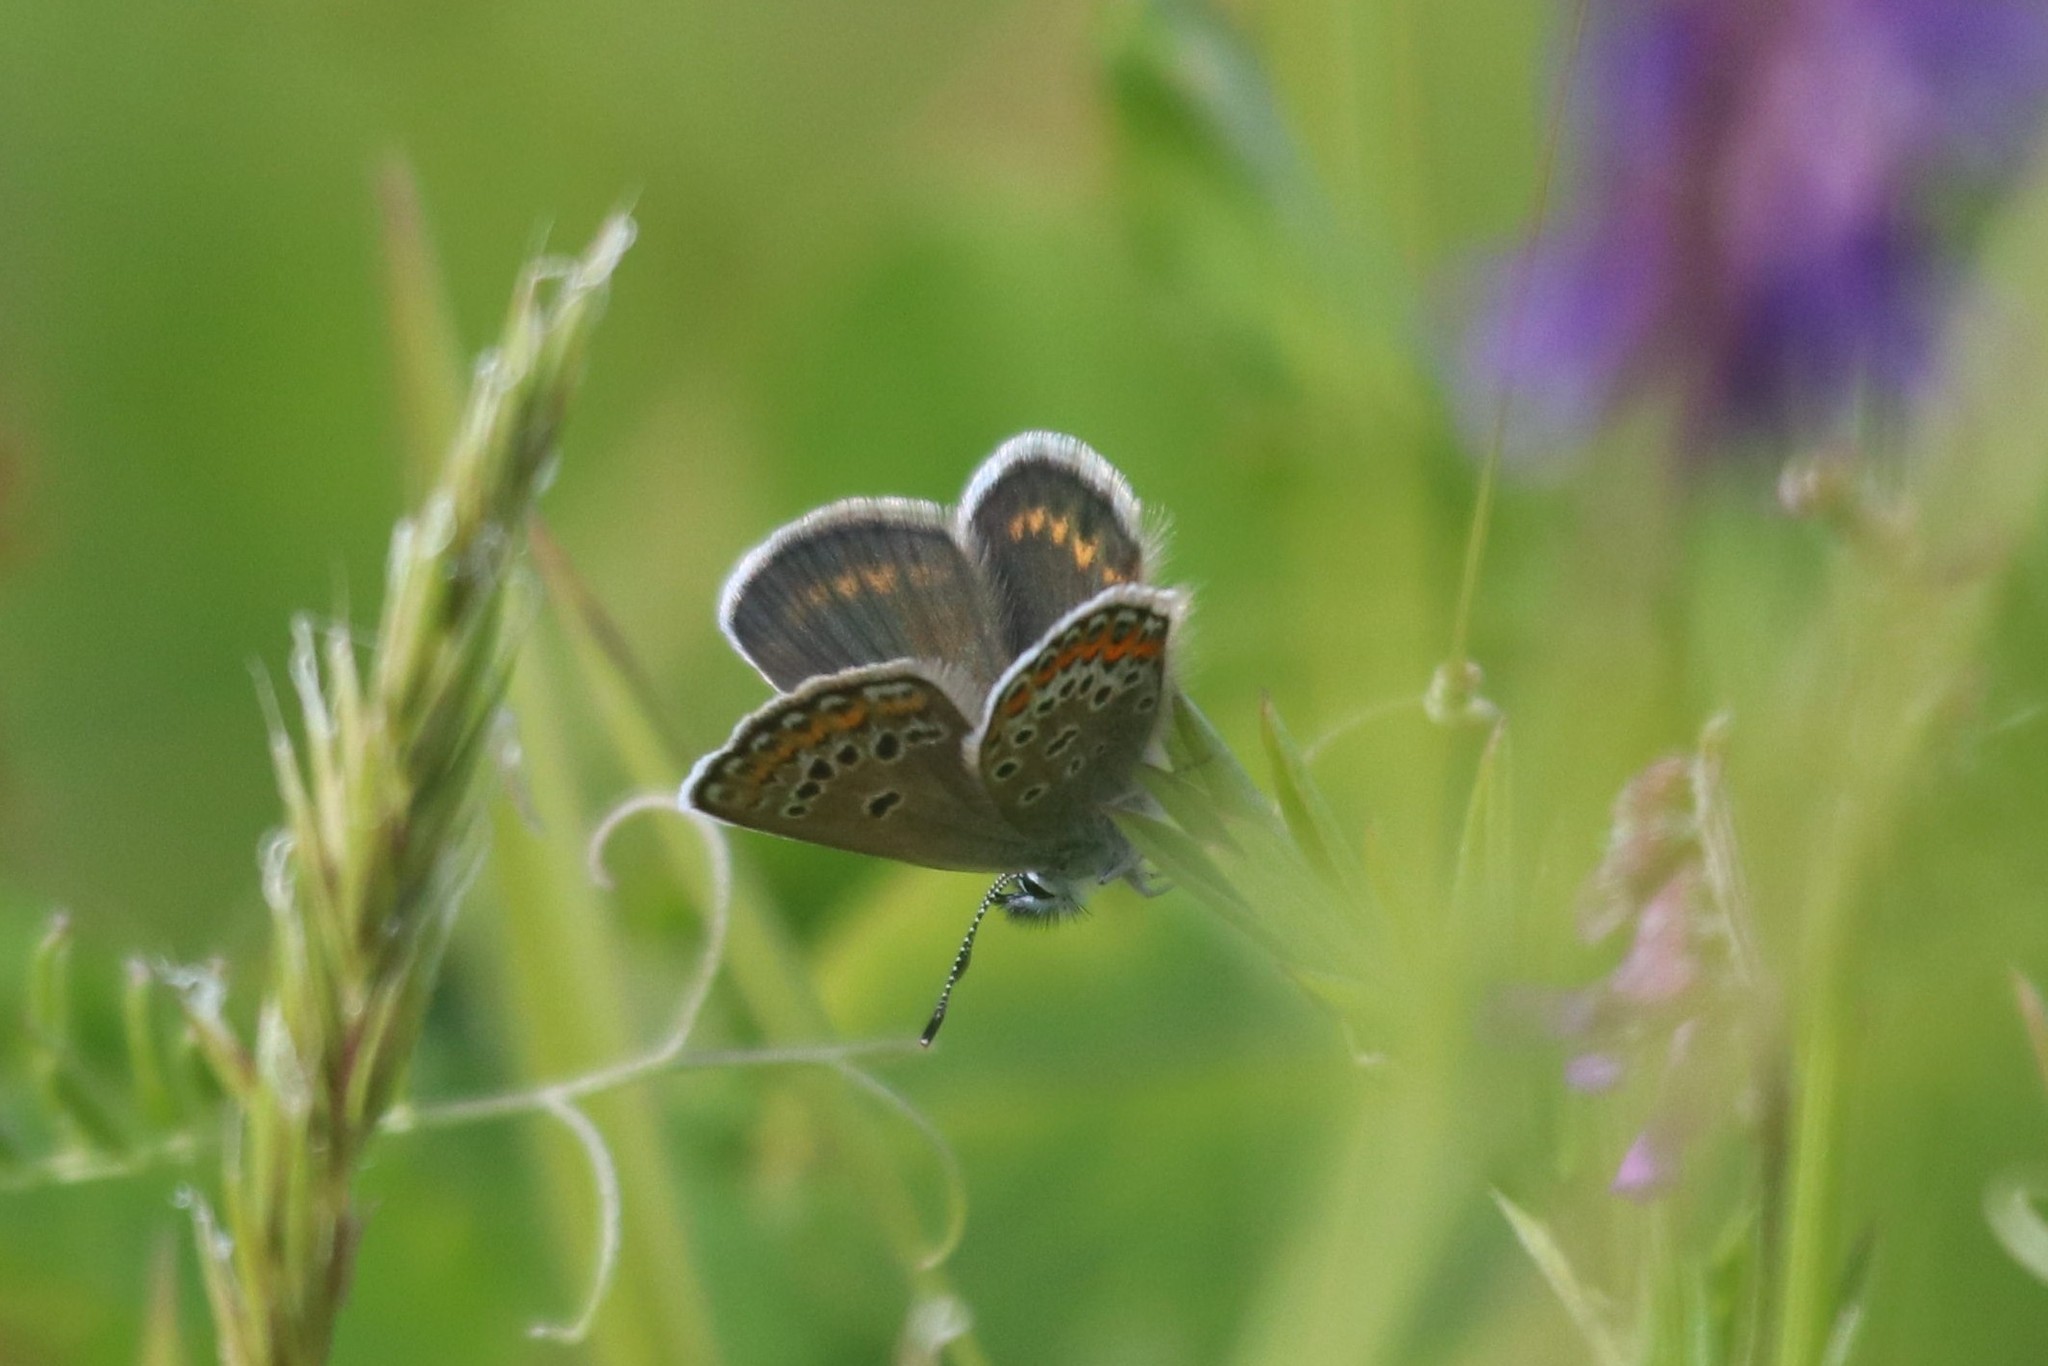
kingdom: Animalia
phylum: Arthropoda
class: Insecta
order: Lepidoptera
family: Lycaenidae
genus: Plebejus
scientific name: Plebejus argus
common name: Silver-studded blue
